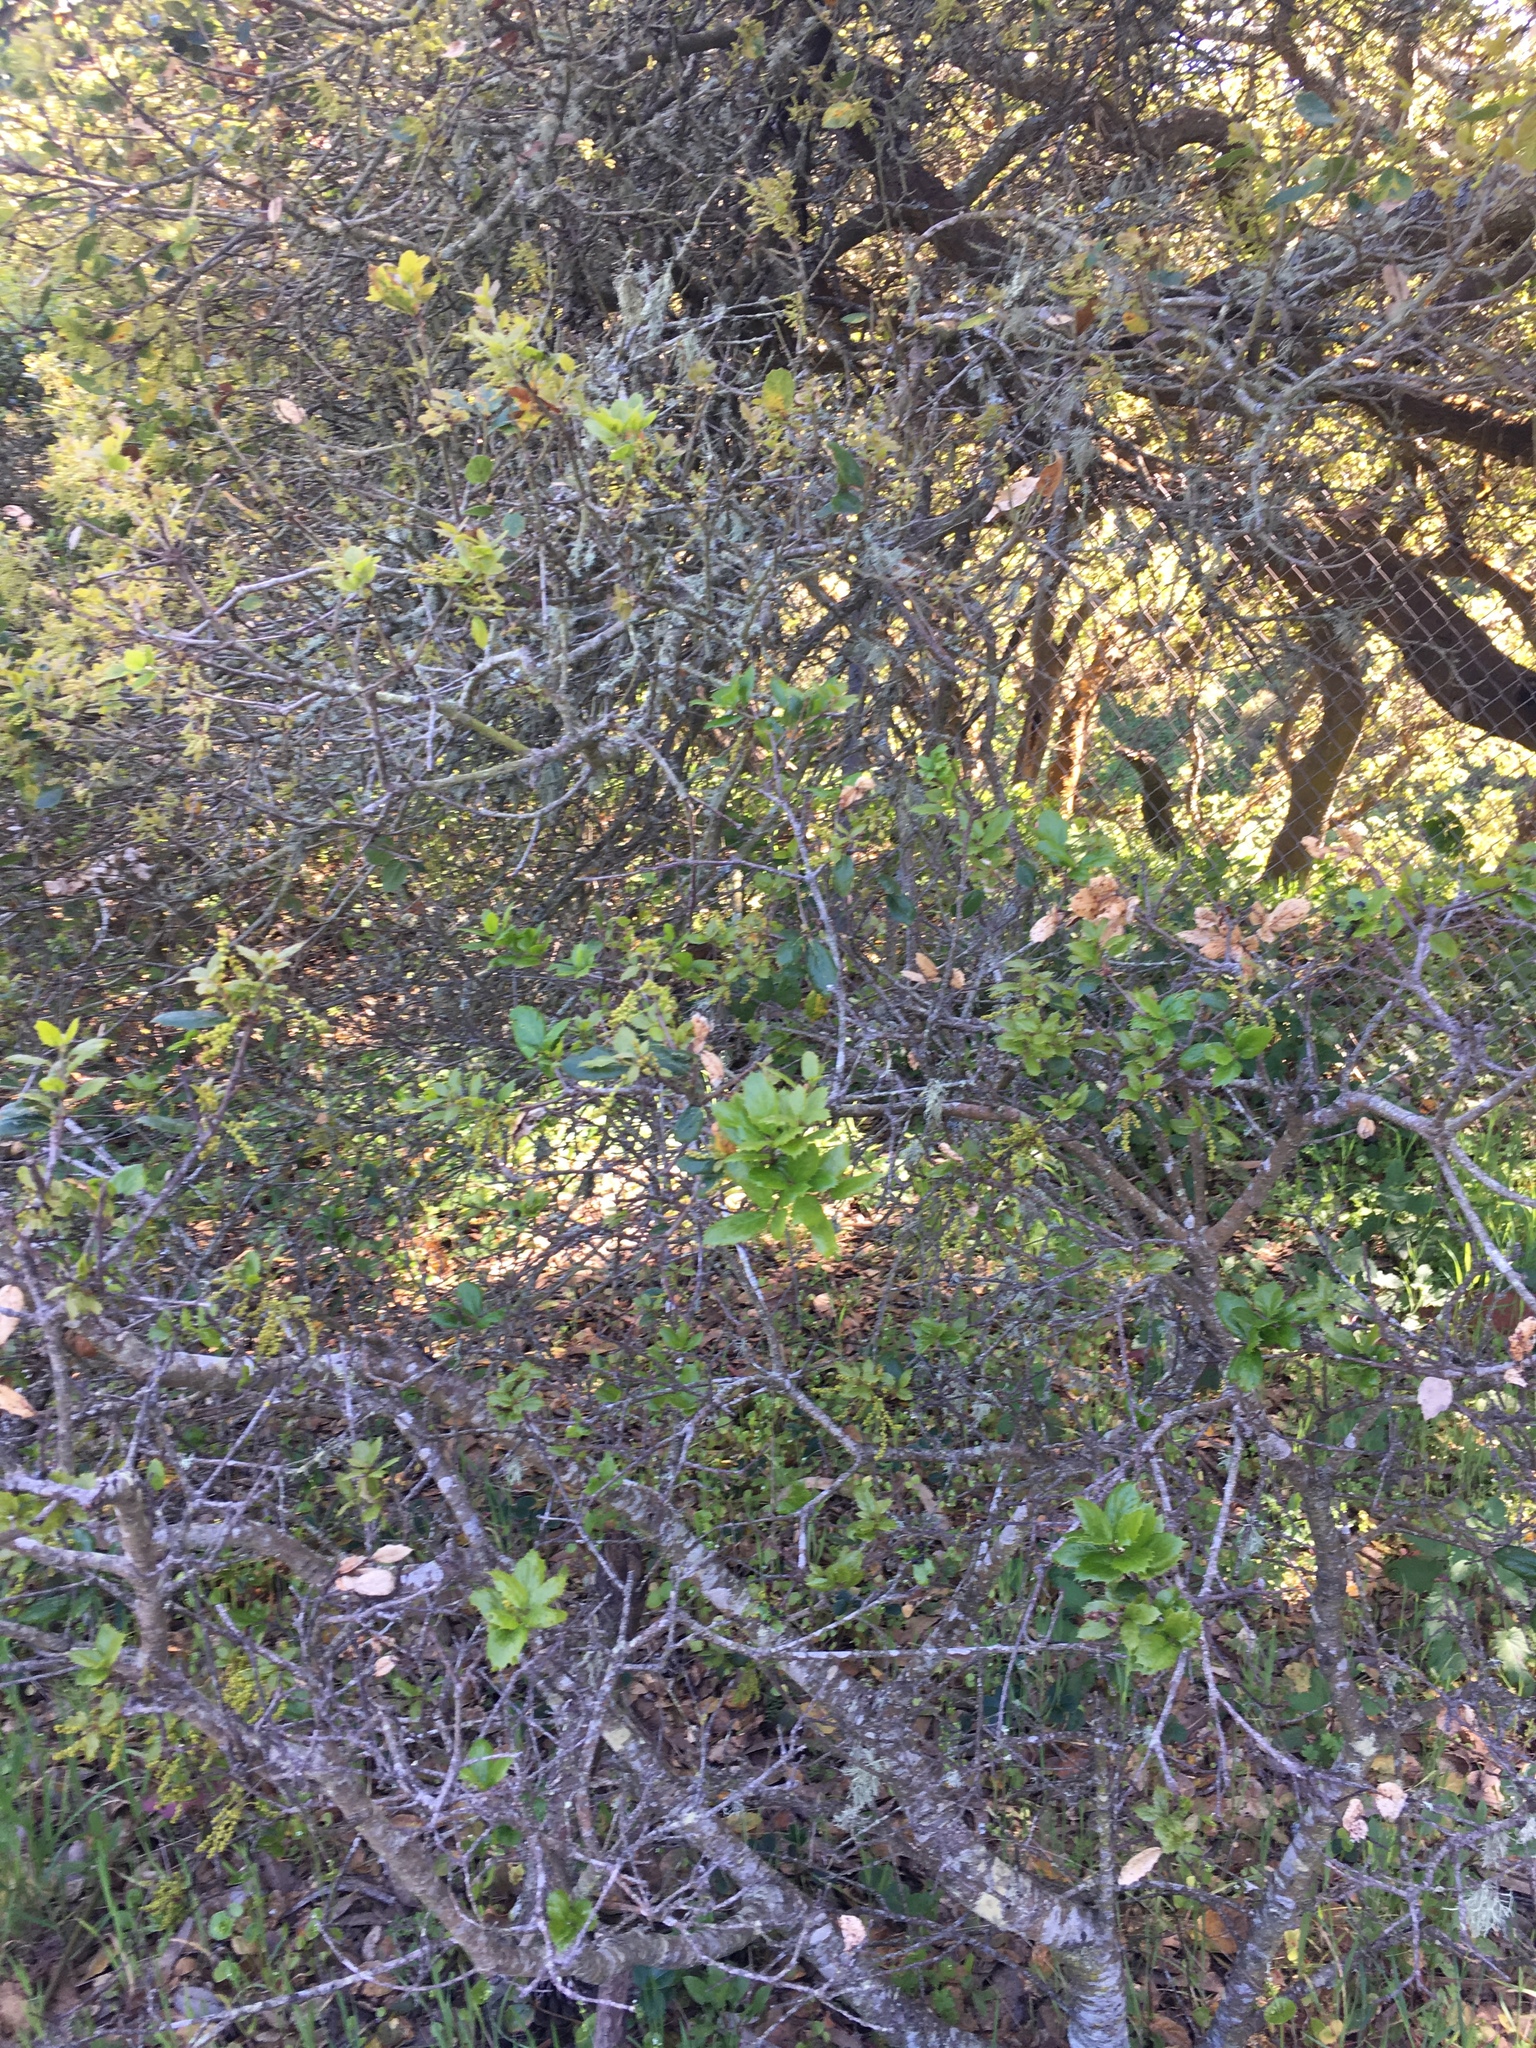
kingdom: Plantae
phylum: Tracheophyta
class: Magnoliopsida
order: Fagales
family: Fagaceae
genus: Quercus
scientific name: Quercus agrifolia
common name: California live oak
